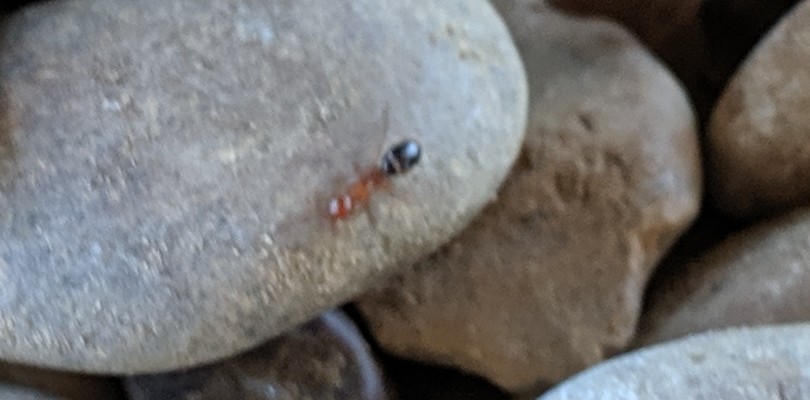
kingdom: Animalia
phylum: Arthropoda
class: Insecta
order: Hymenoptera
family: Formicidae
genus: Camponotus
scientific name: Camponotus discolor
